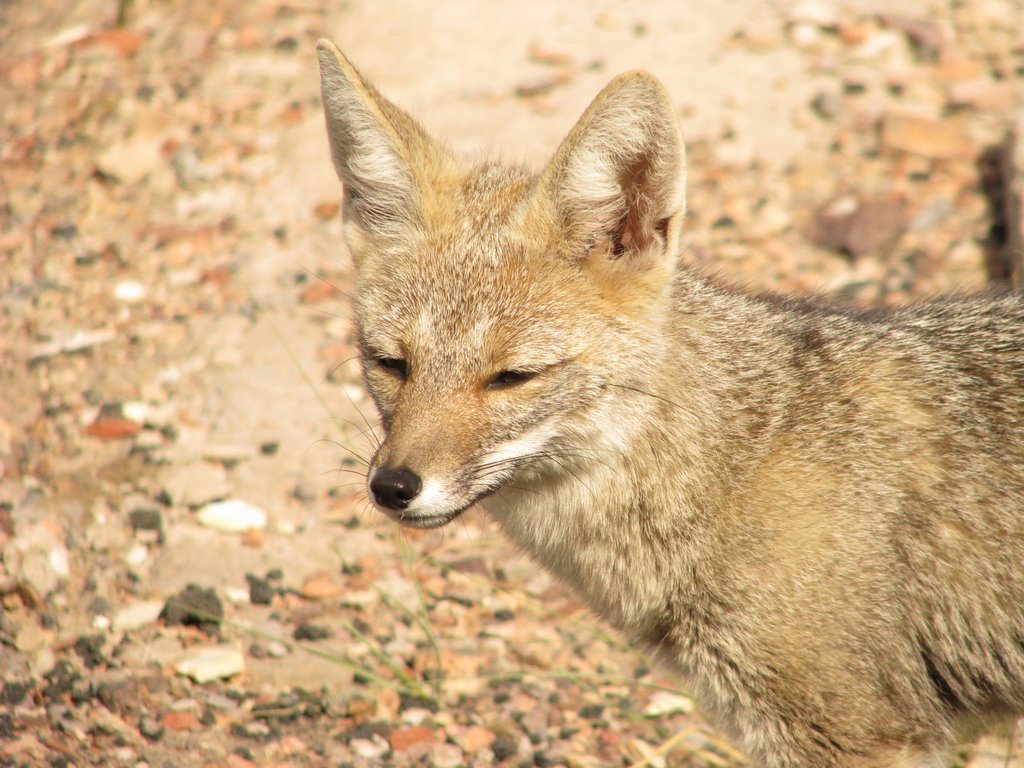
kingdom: Animalia
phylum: Chordata
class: Mammalia
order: Carnivora
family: Canidae
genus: Lycalopex
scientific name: Lycalopex gymnocercus
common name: Pampas fox
